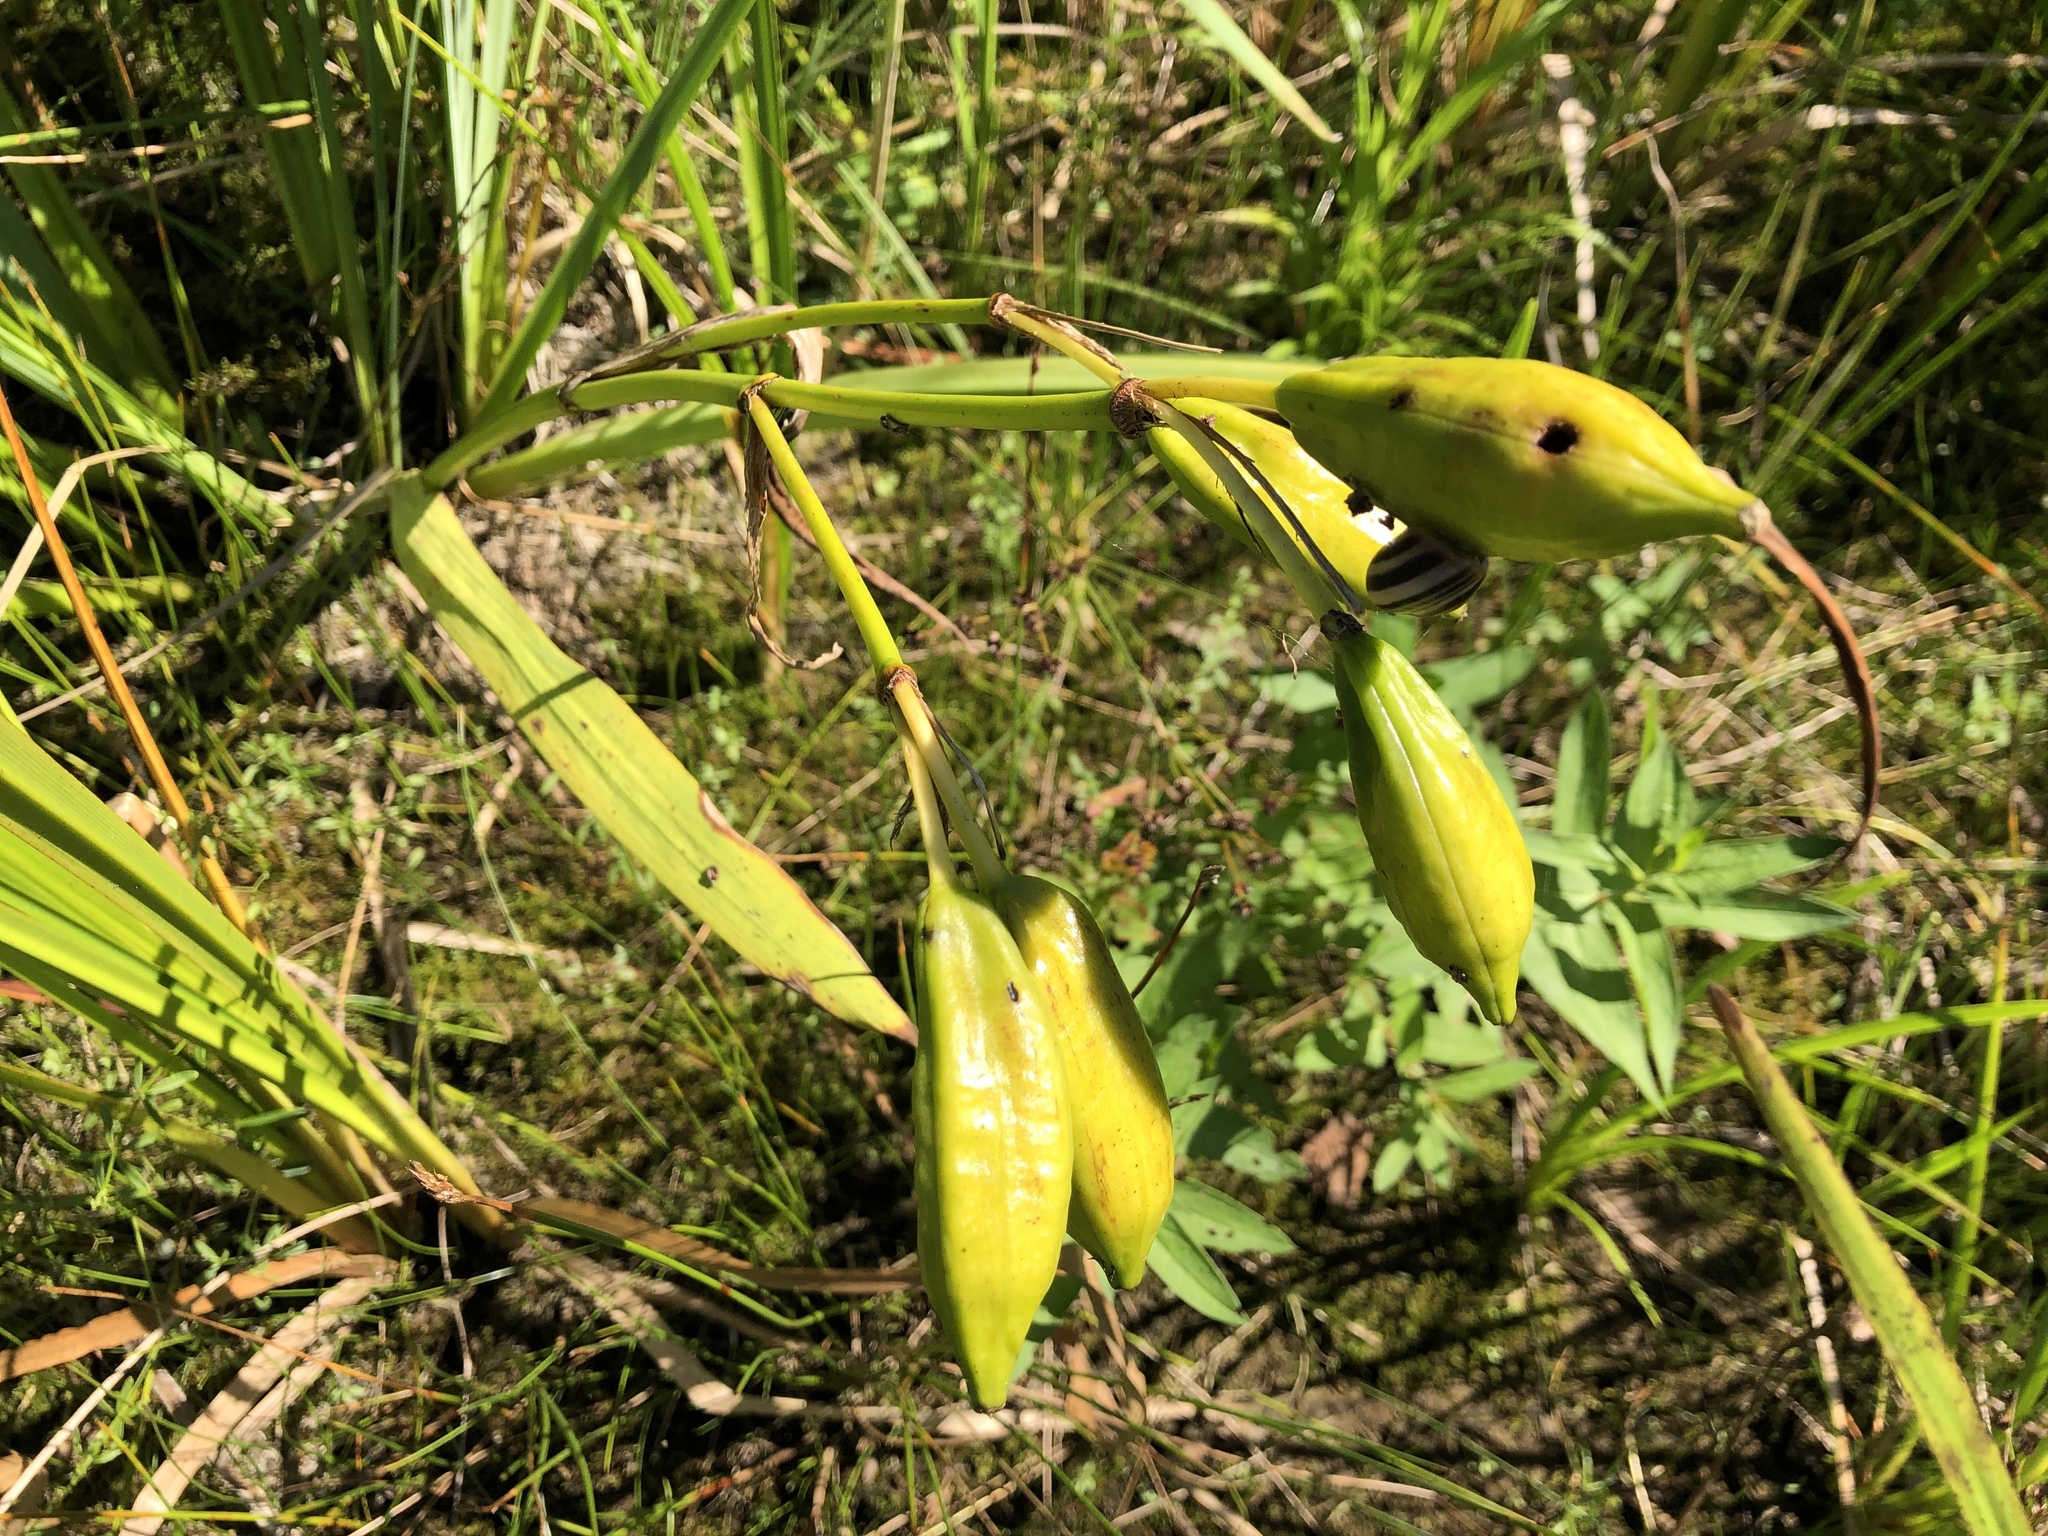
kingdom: Plantae
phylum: Tracheophyta
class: Liliopsida
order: Asparagales
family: Iridaceae
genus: Iris
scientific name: Iris pseudacorus
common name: Yellow flag
